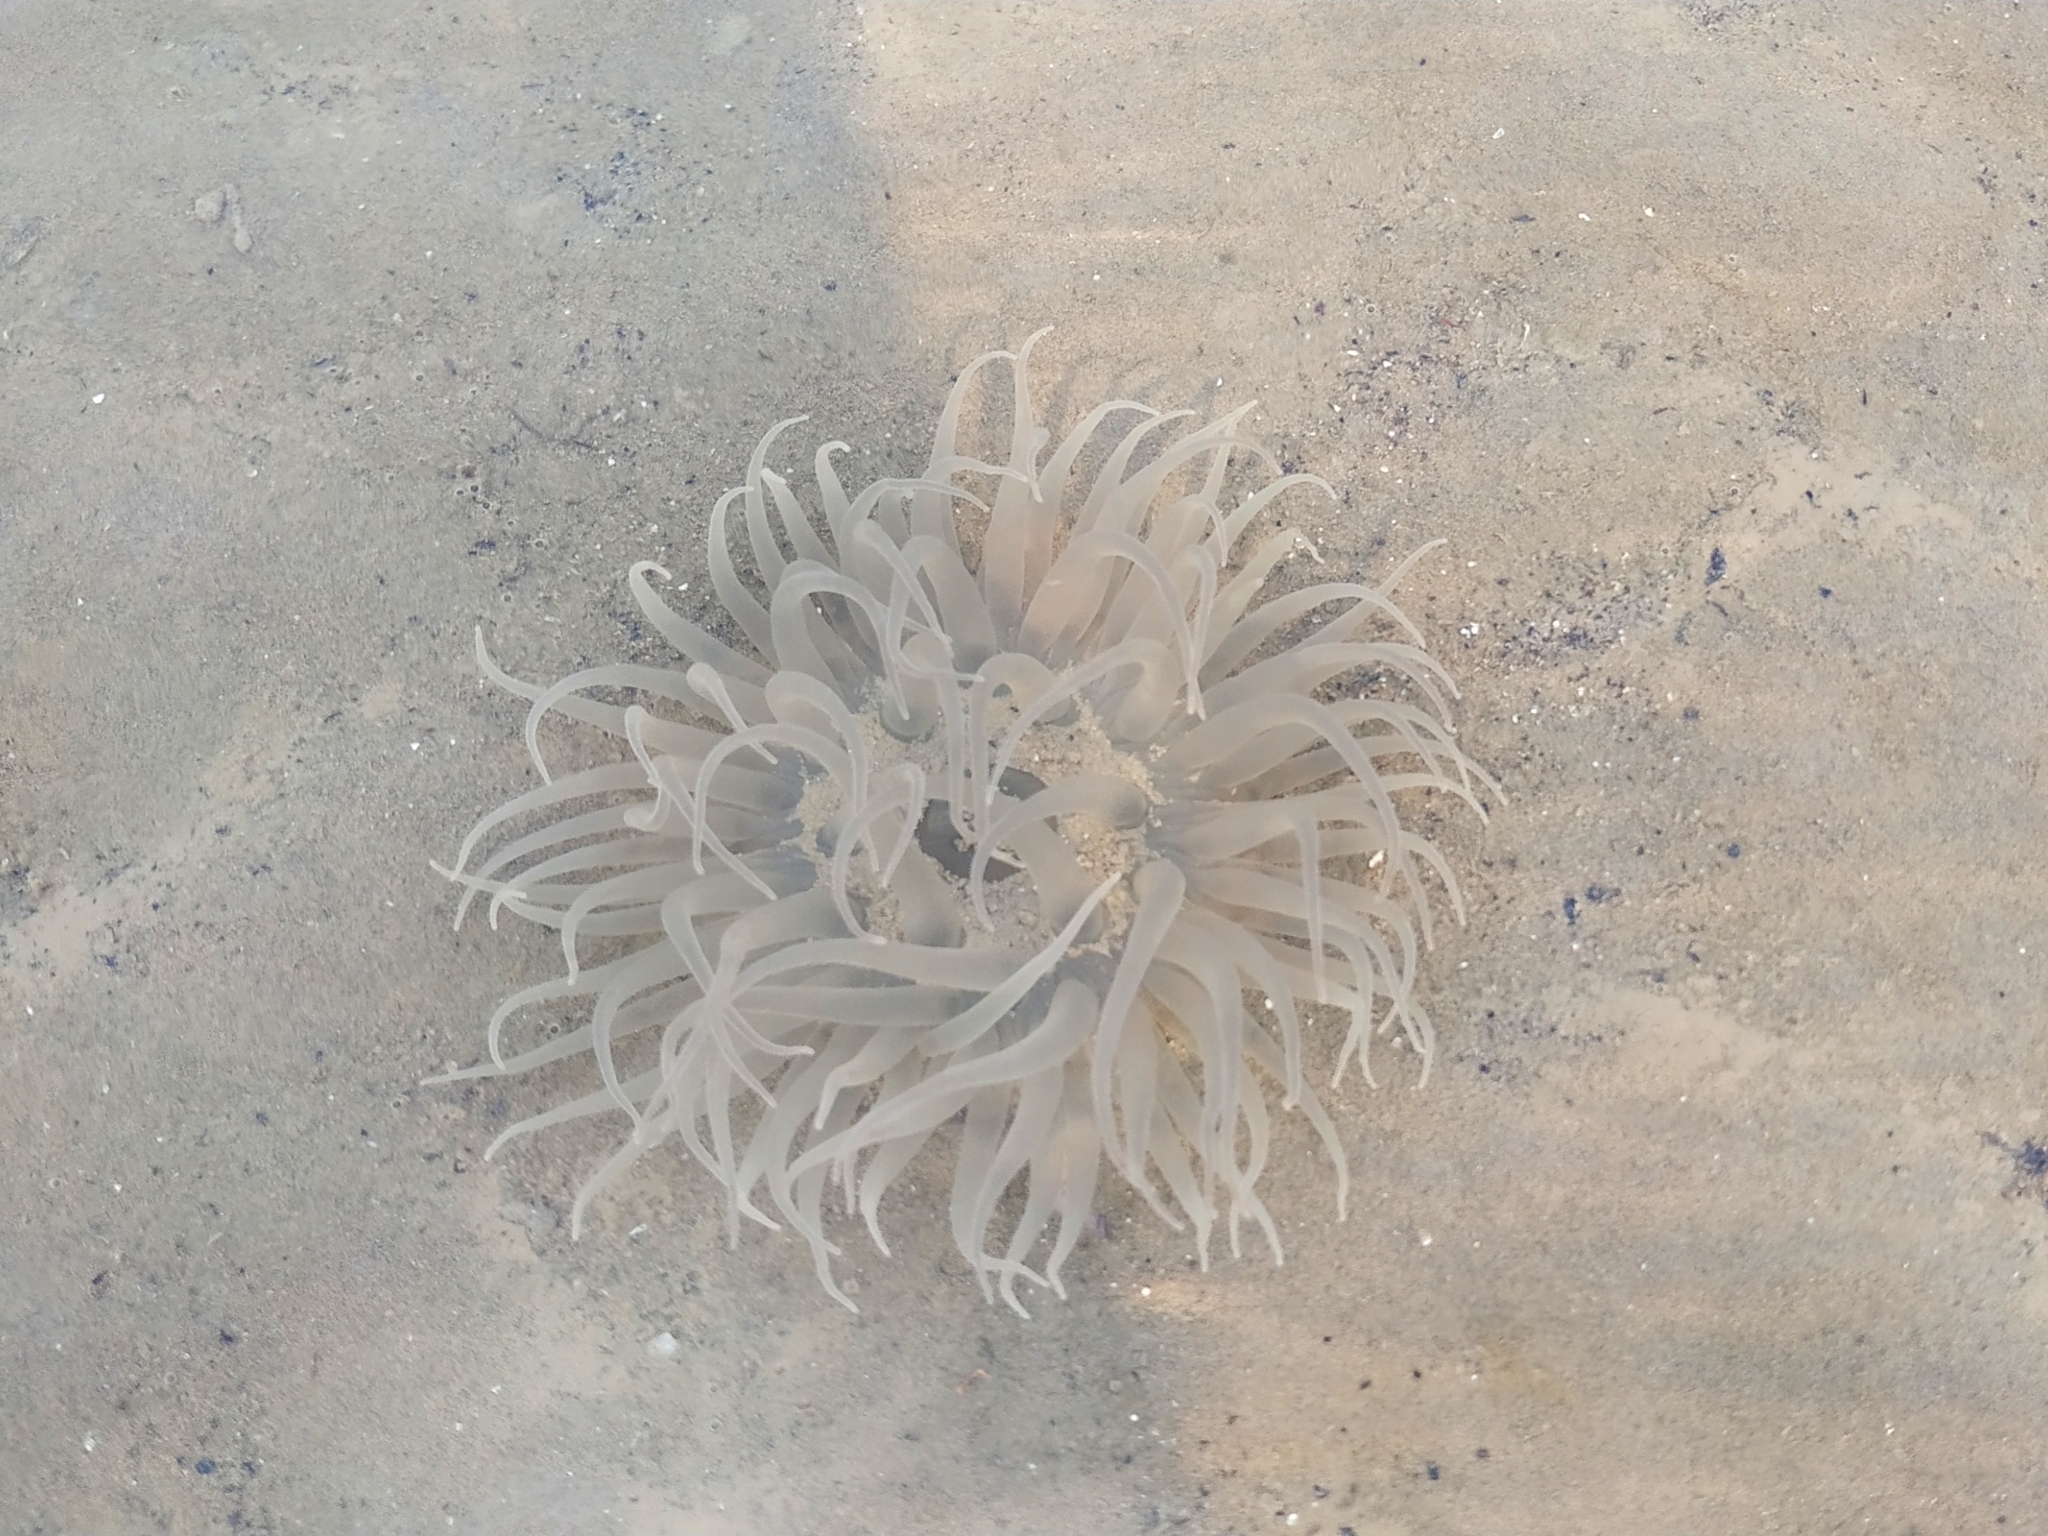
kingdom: Animalia
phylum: Cnidaria
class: Anthozoa
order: Actiniaria
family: Actiniidae
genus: Paracondylactis
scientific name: Paracondylactis sinensis
